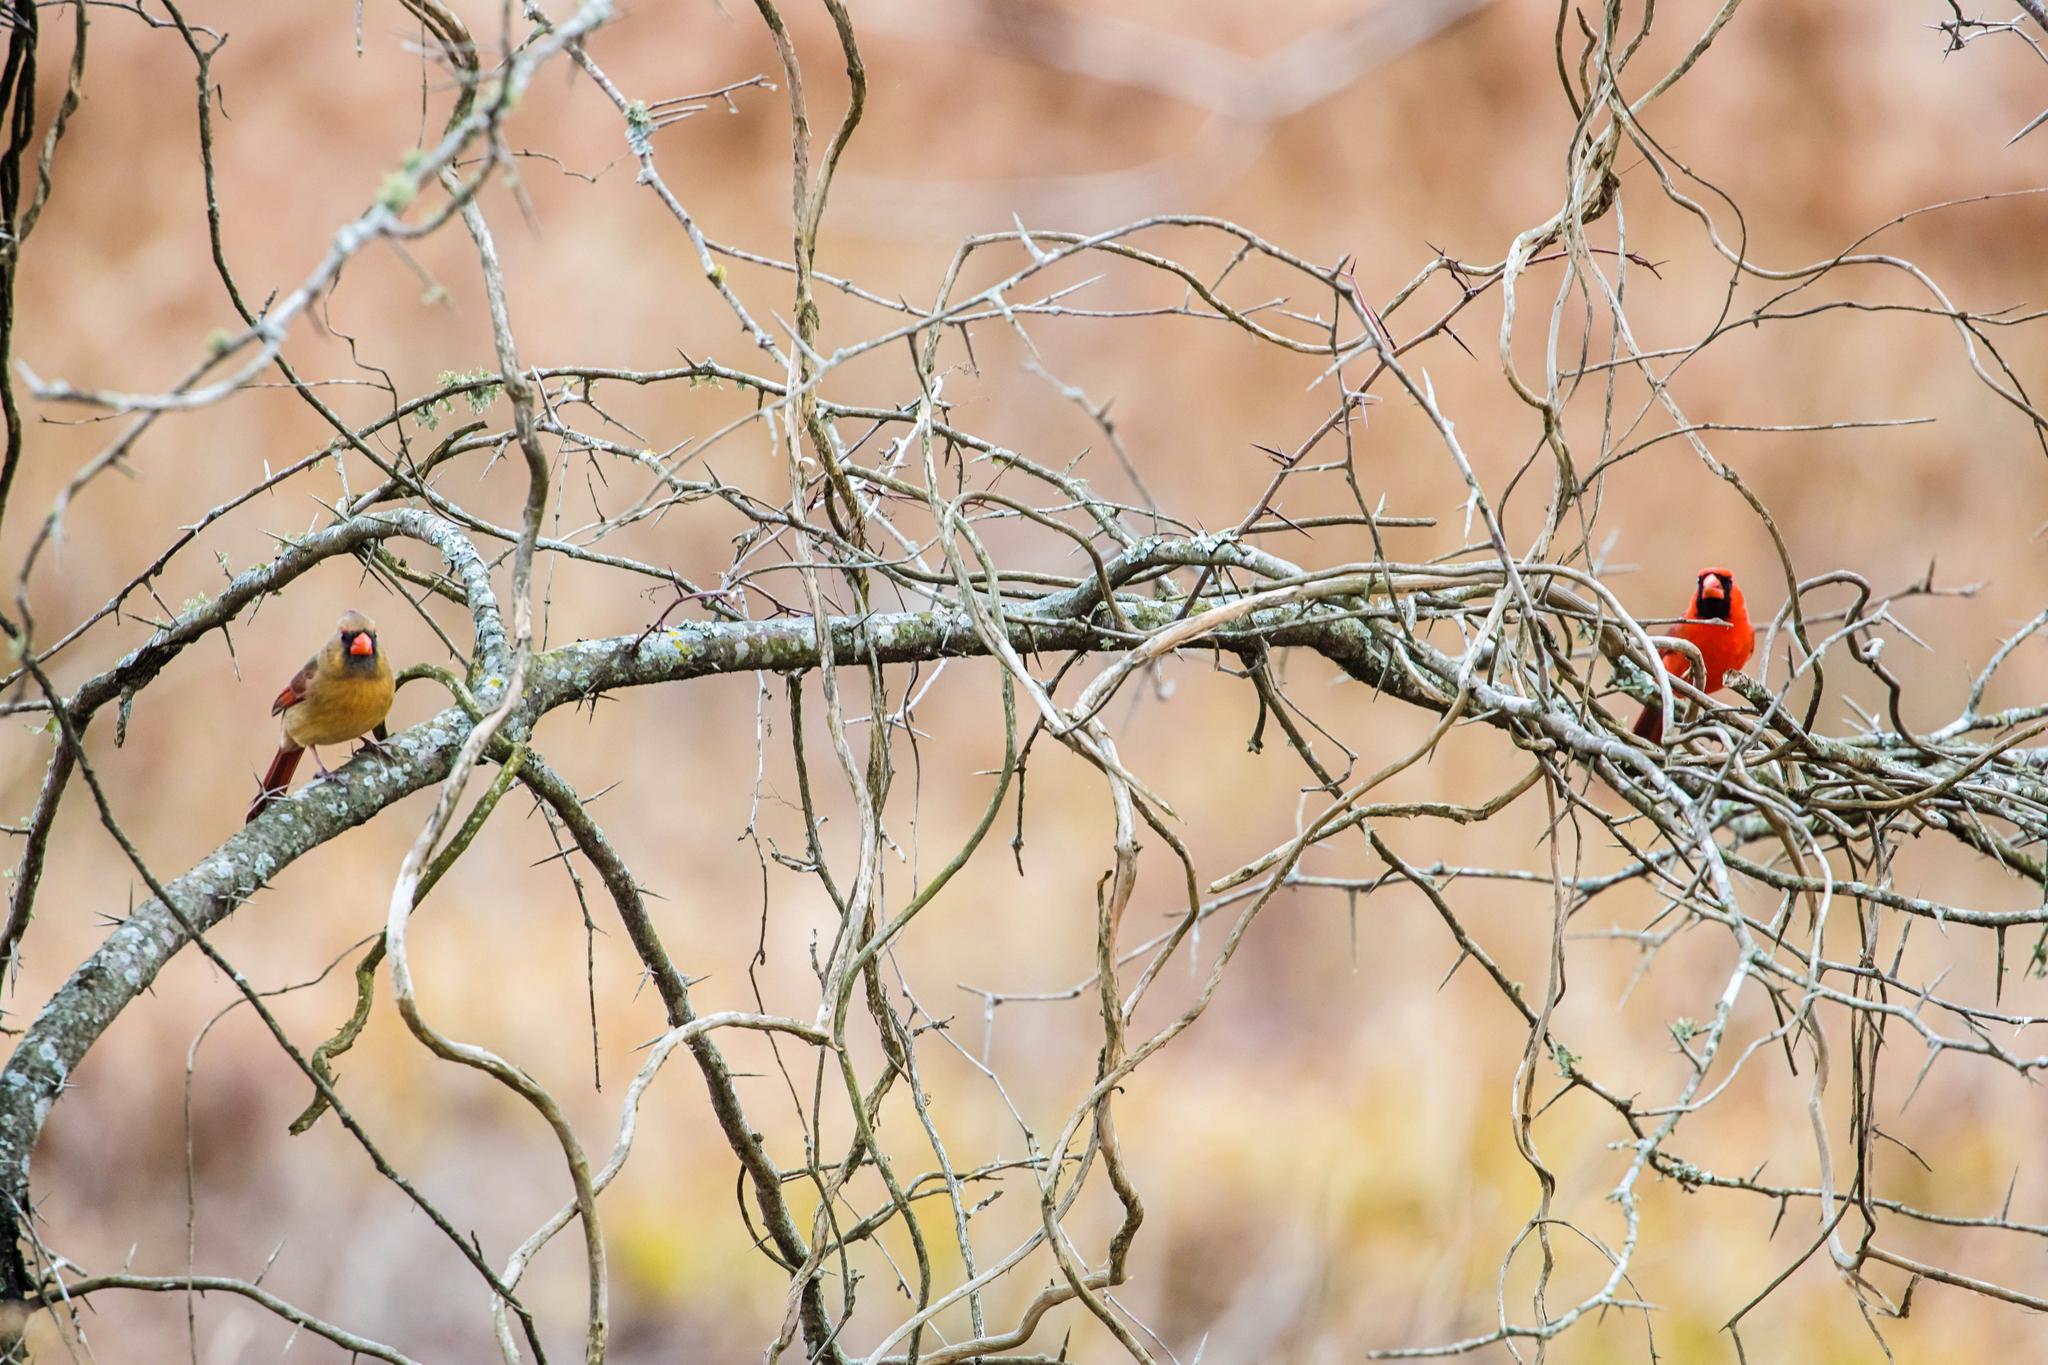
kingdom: Animalia
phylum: Chordata
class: Aves
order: Passeriformes
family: Cardinalidae
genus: Cardinalis
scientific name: Cardinalis cardinalis
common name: Northern cardinal
